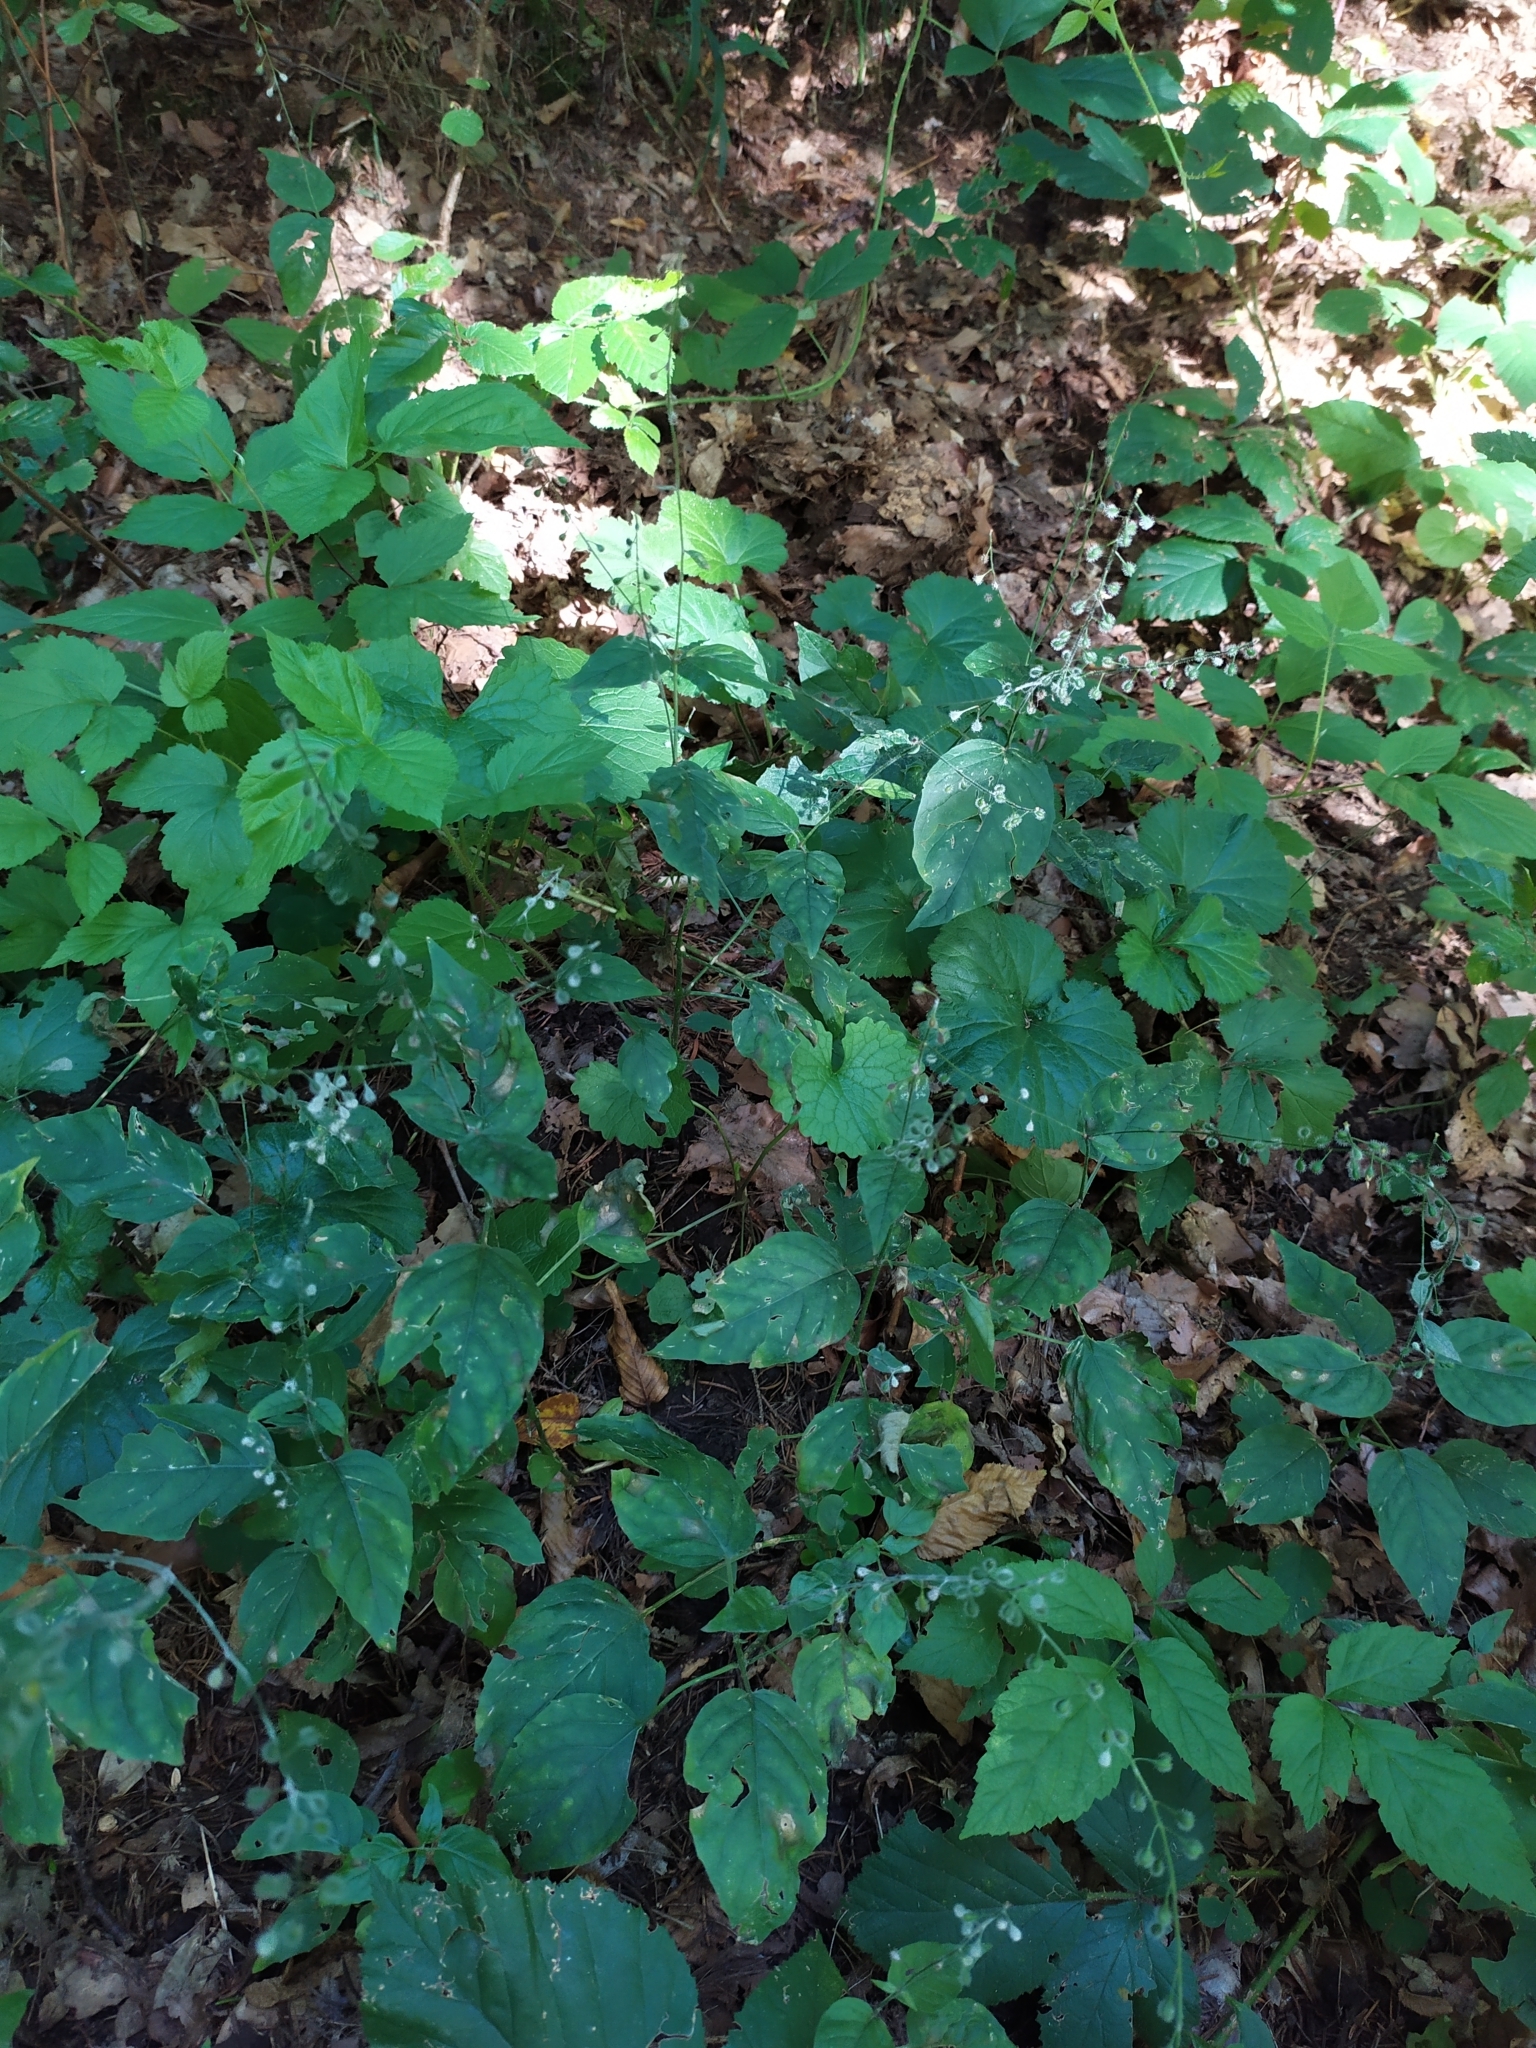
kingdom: Plantae
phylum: Tracheophyta
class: Magnoliopsida
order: Myrtales
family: Onagraceae
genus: Circaea
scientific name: Circaea lutetiana
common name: Enchanter's-nightshade
